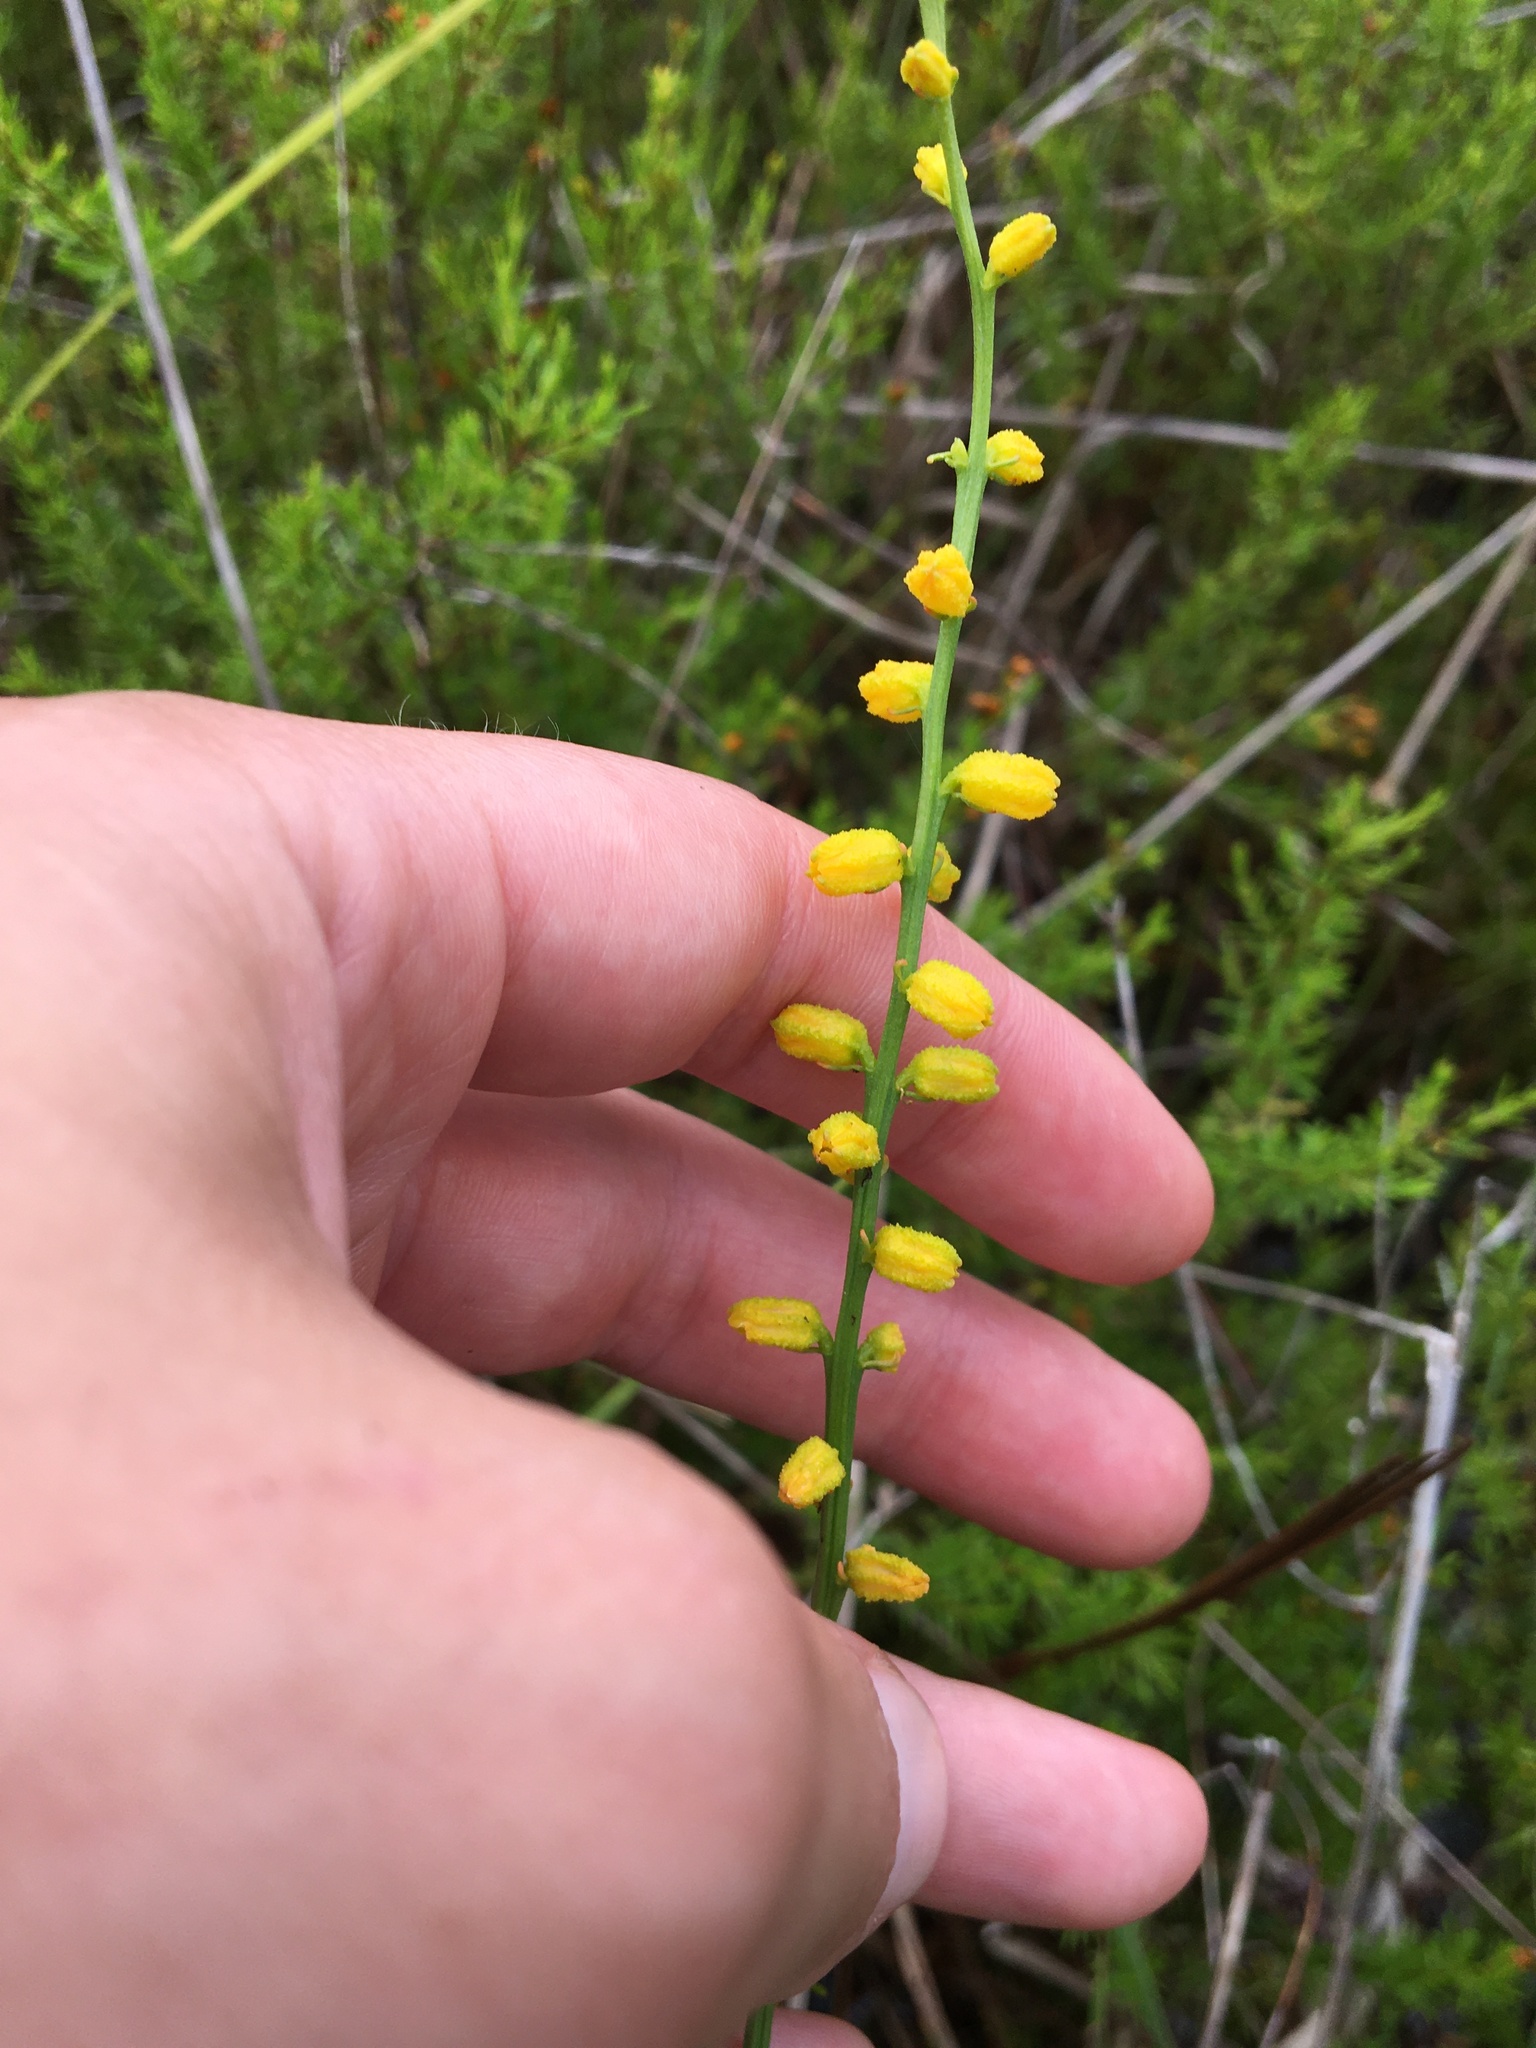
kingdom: Plantae
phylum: Tracheophyta
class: Liliopsida
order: Dioscoreales
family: Nartheciaceae
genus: Aletris
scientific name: Aletris aurea
